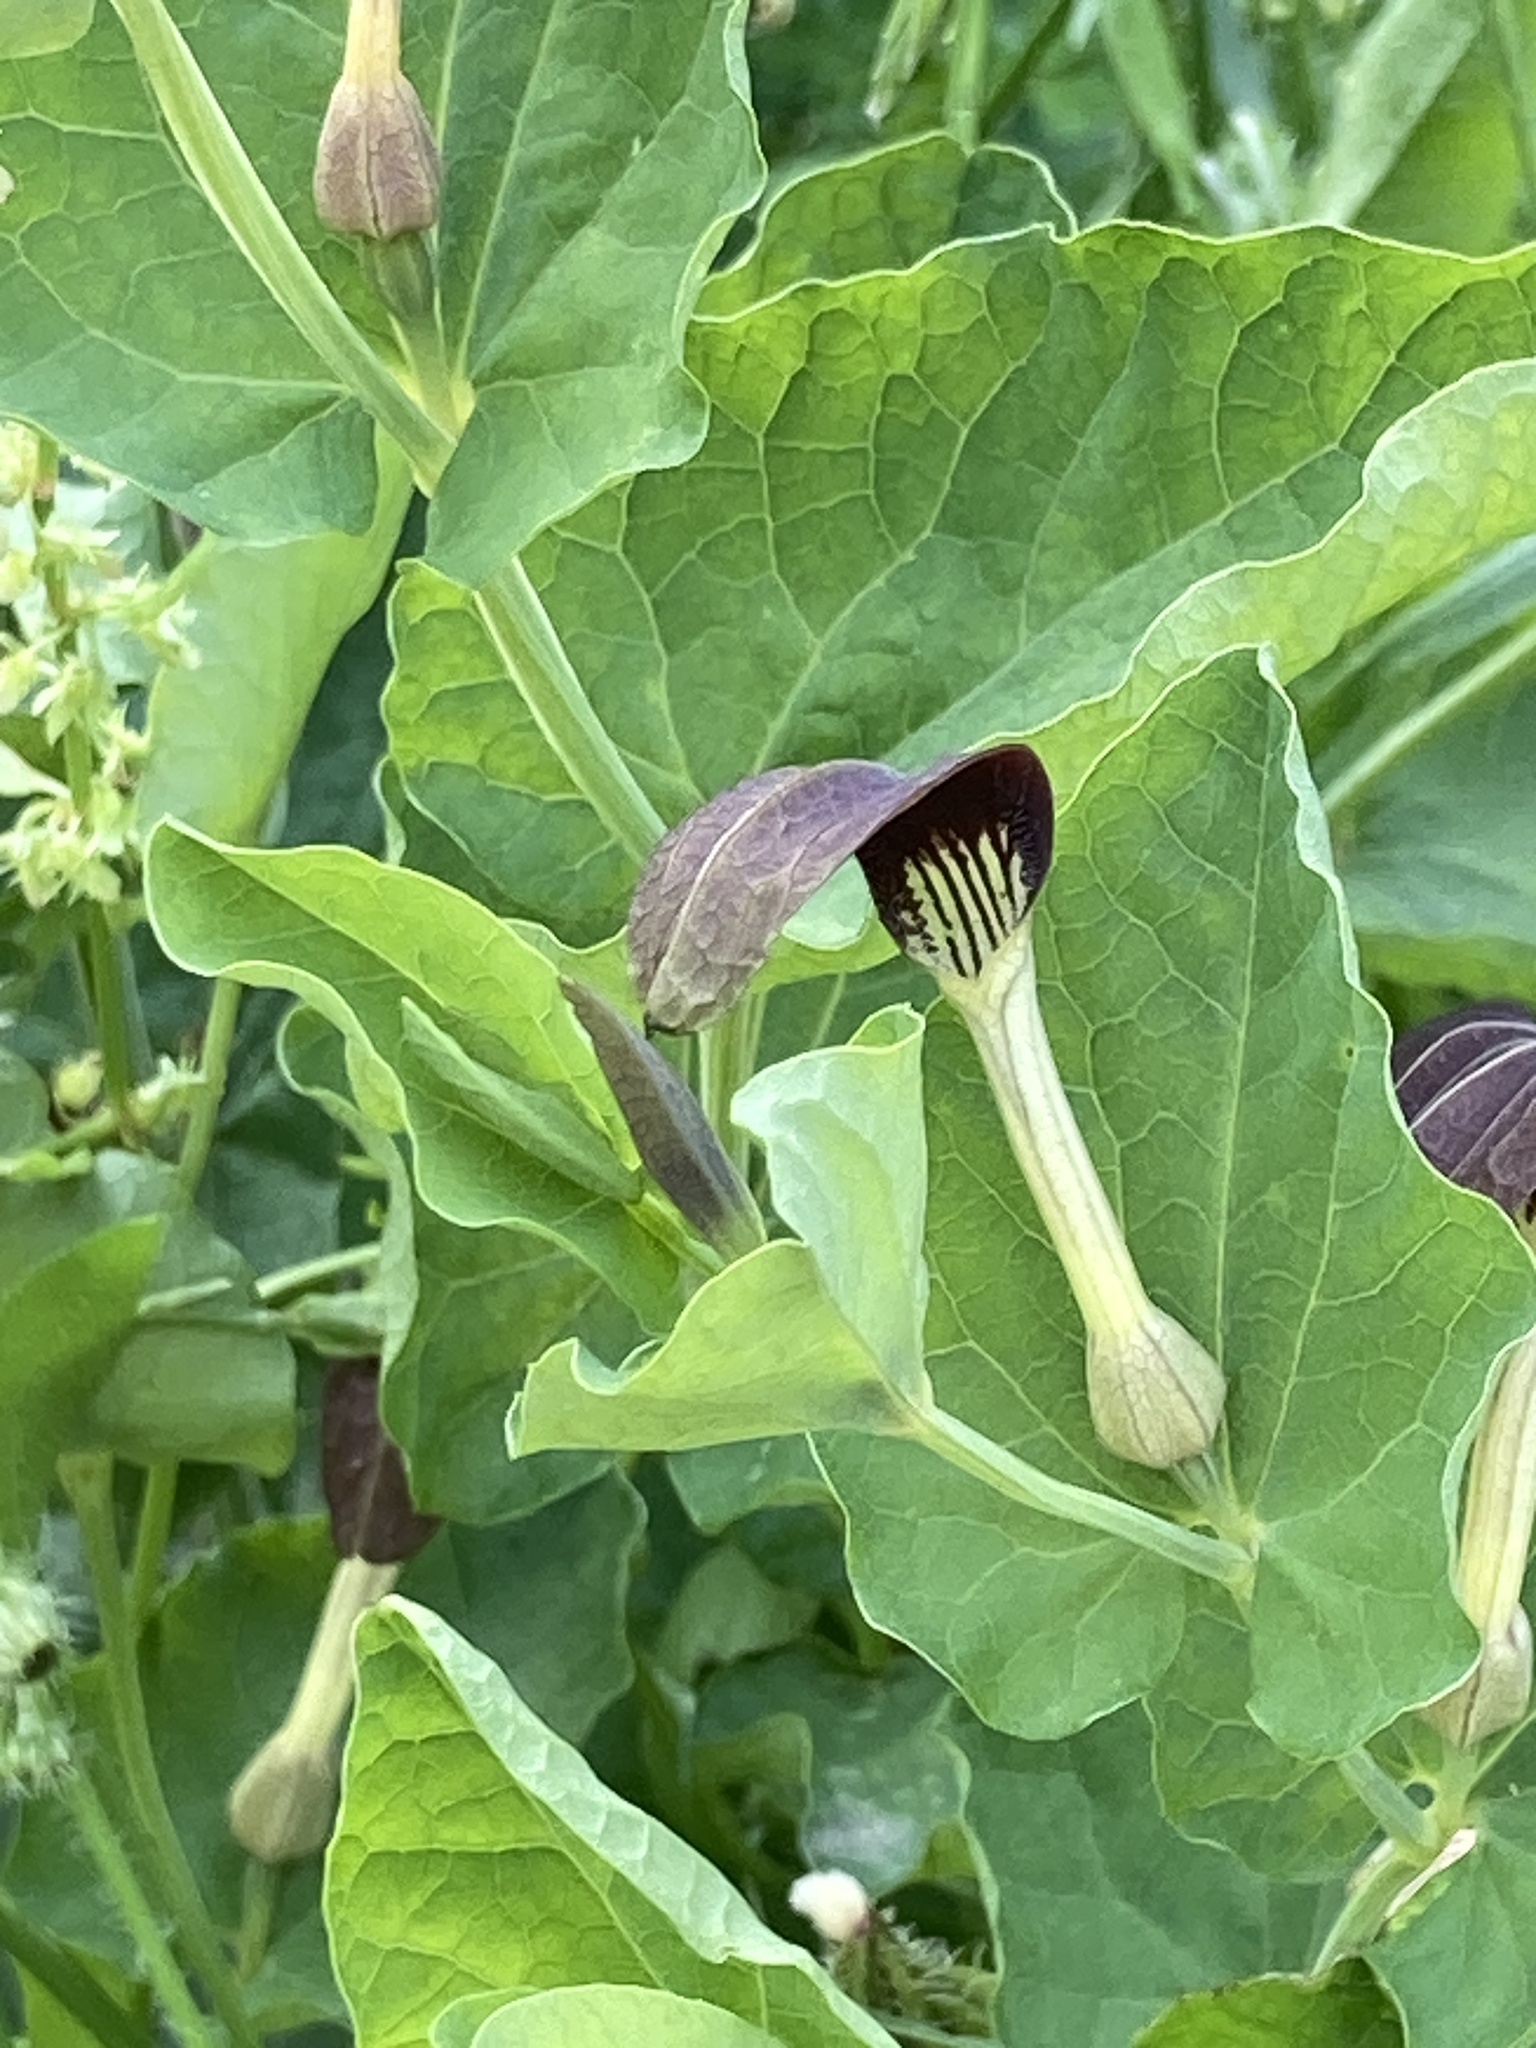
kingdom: Plantae
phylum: Tracheophyta
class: Magnoliopsida
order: Piperales
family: Aristolochiaceae
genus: Aristolochia
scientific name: Aristolochia rotunda
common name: Smearwort
